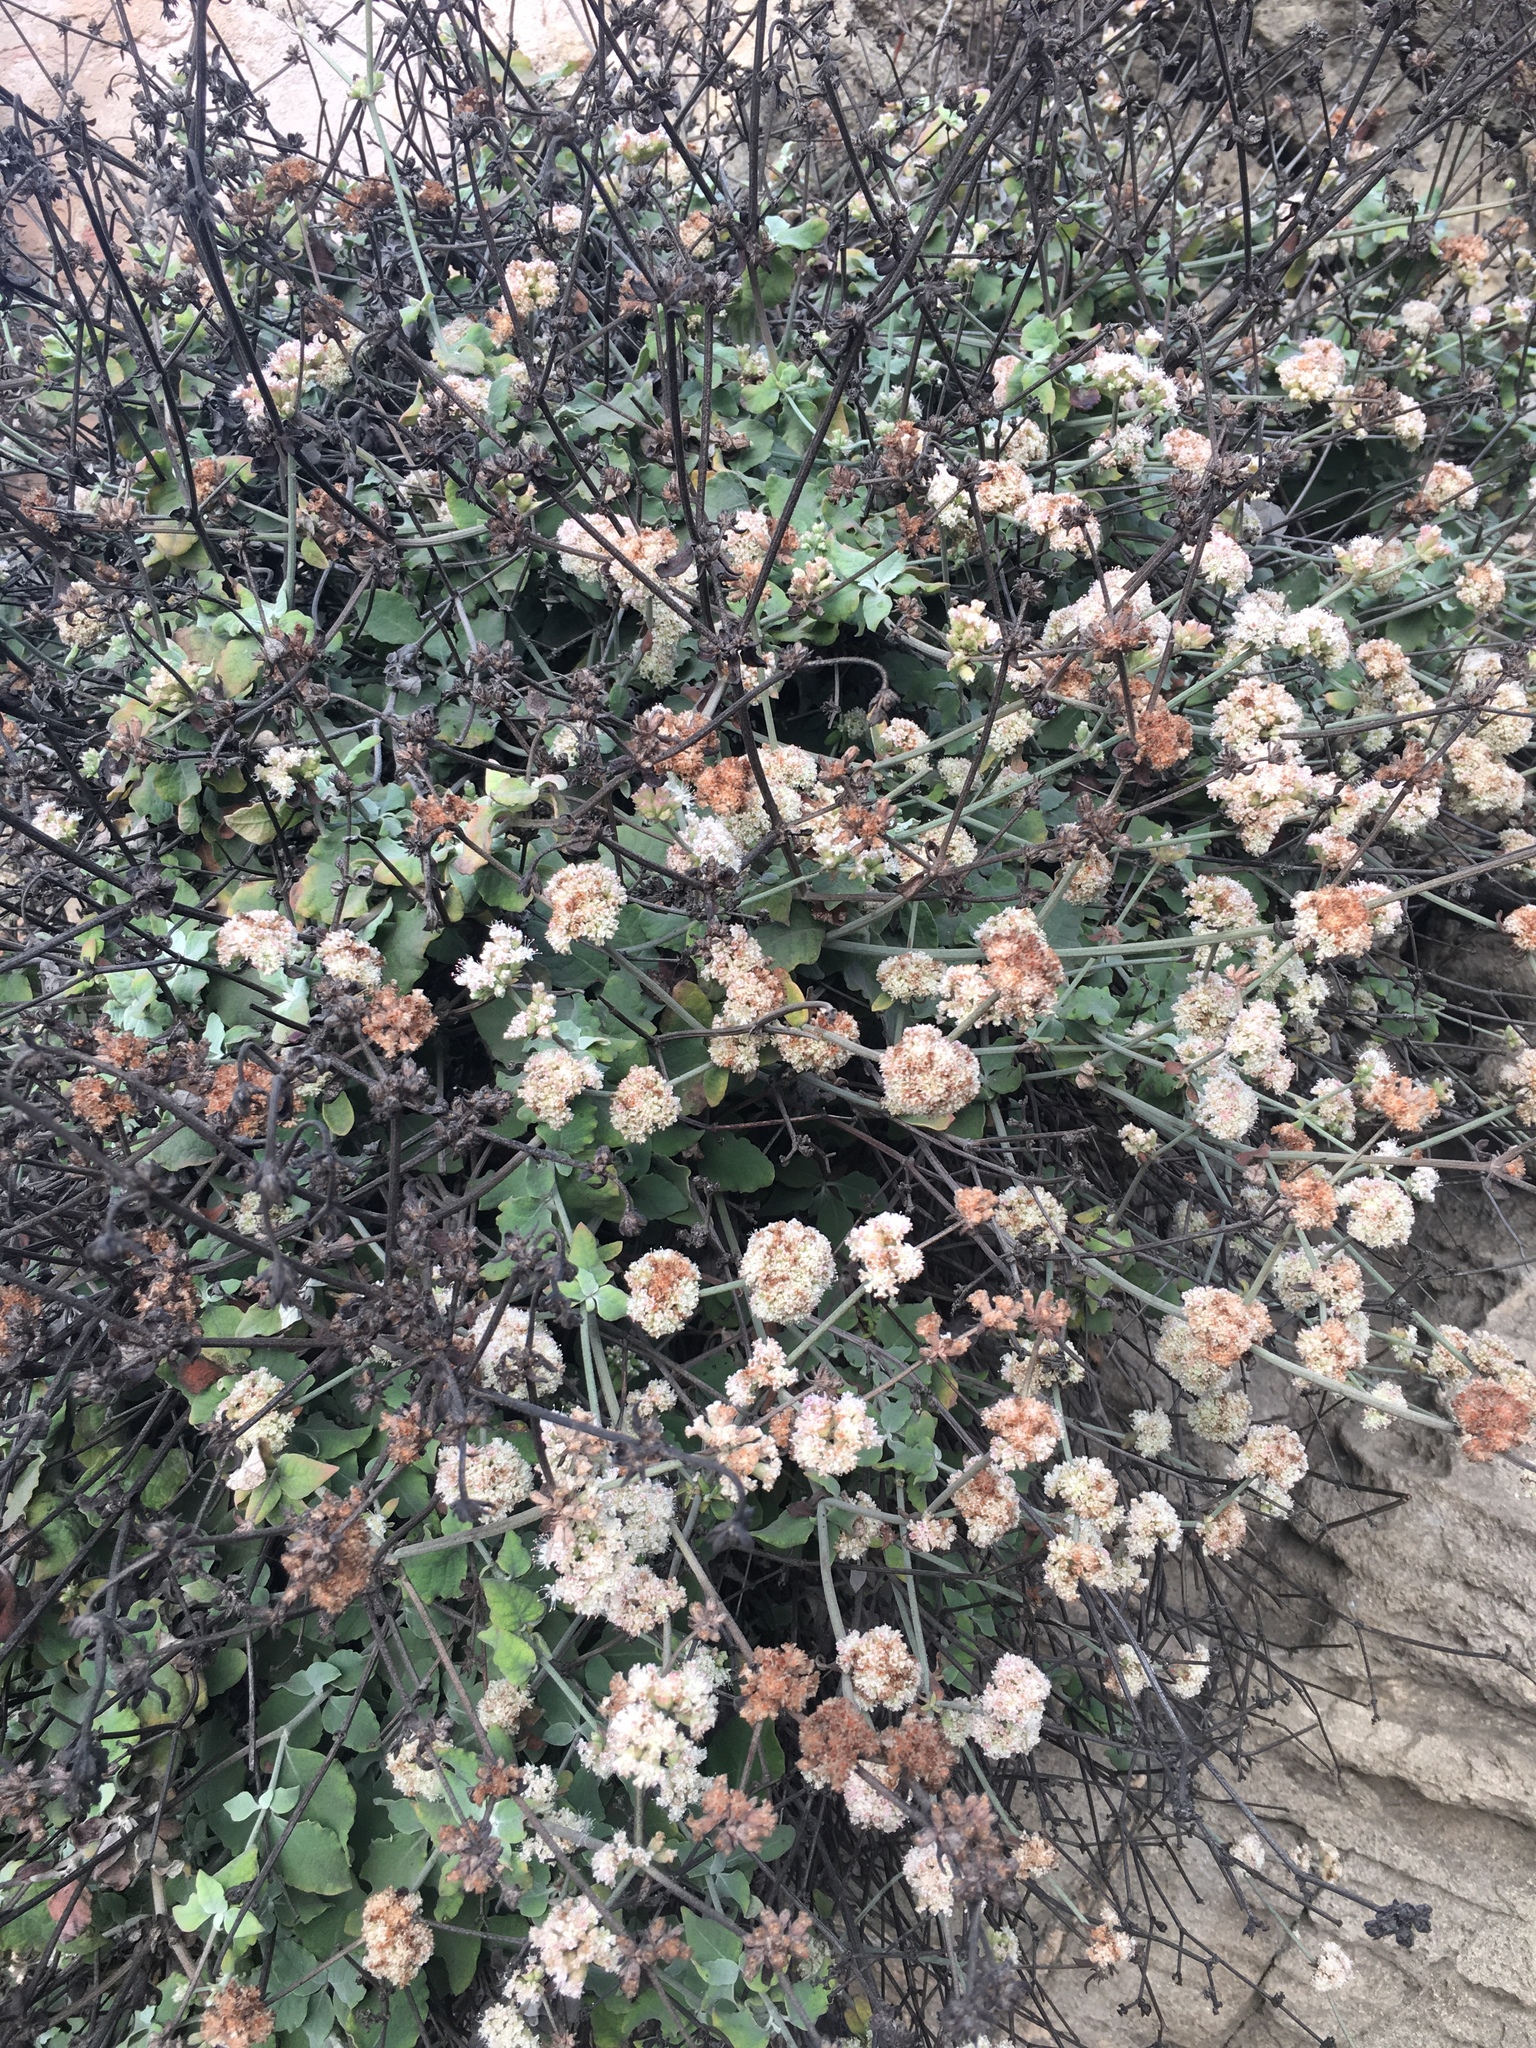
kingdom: Plantae
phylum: Tracheophyta
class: Magnoliopsida
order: Caryophyllales
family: Polygonaceae
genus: Eriogonum
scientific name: Eriogonum cinereum
